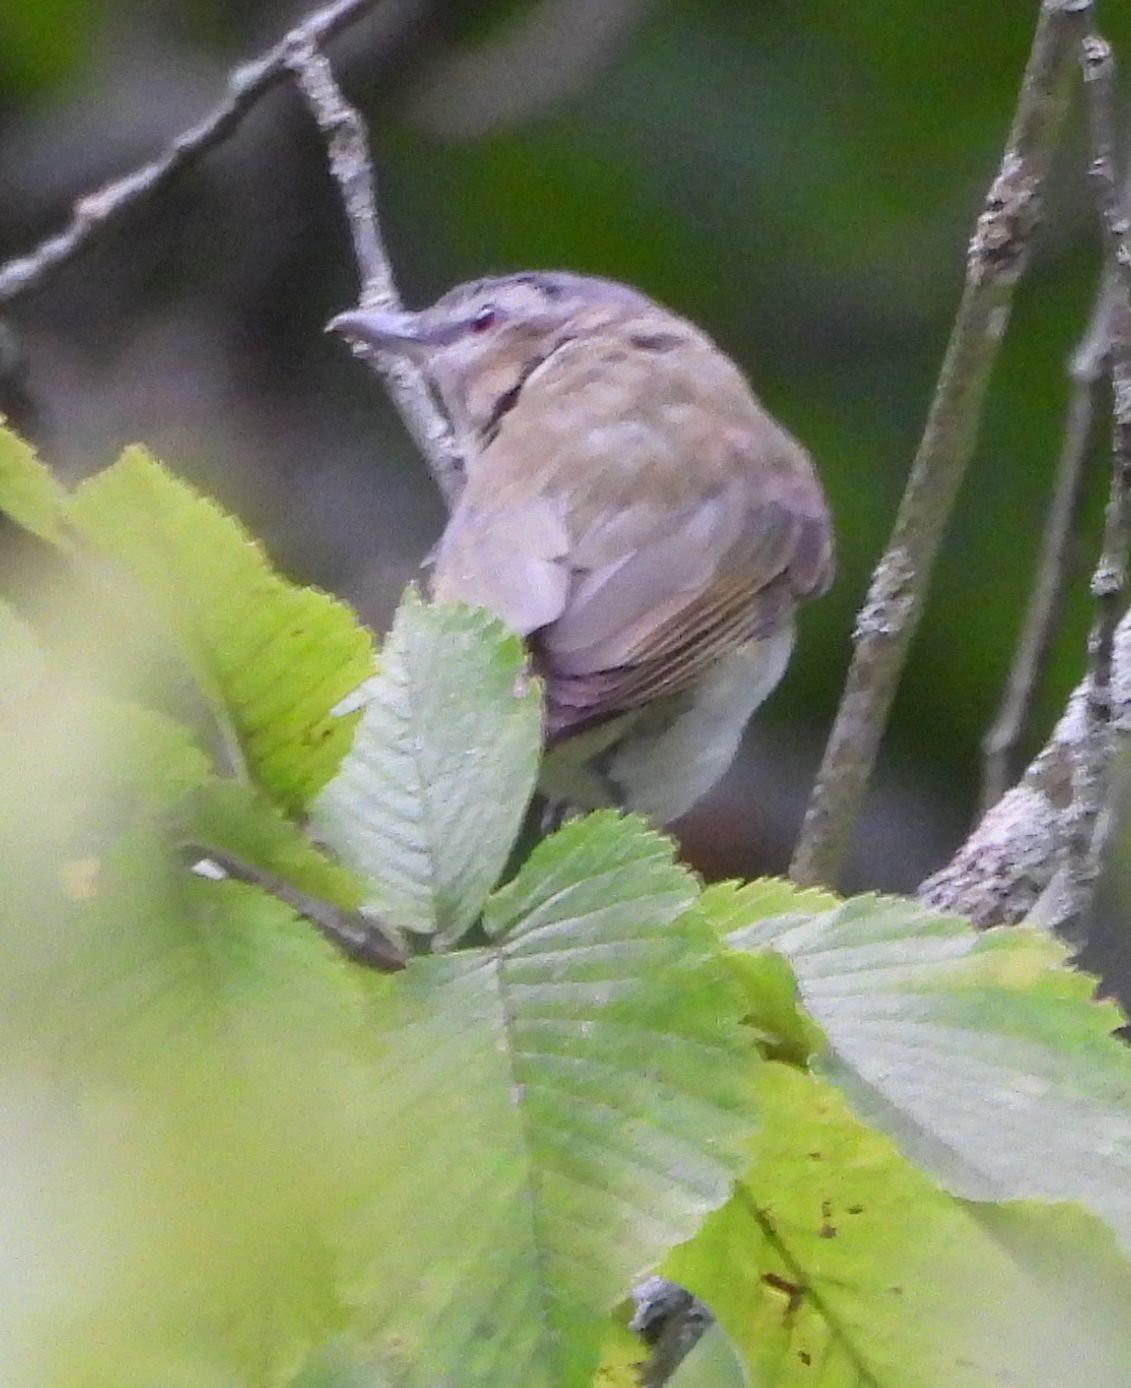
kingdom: Animalia
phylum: Chordata
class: Aves
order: Passeriformes
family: Vireonidae
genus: Vireo
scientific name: Vireo olivaceus
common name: Red-eyed vireo
